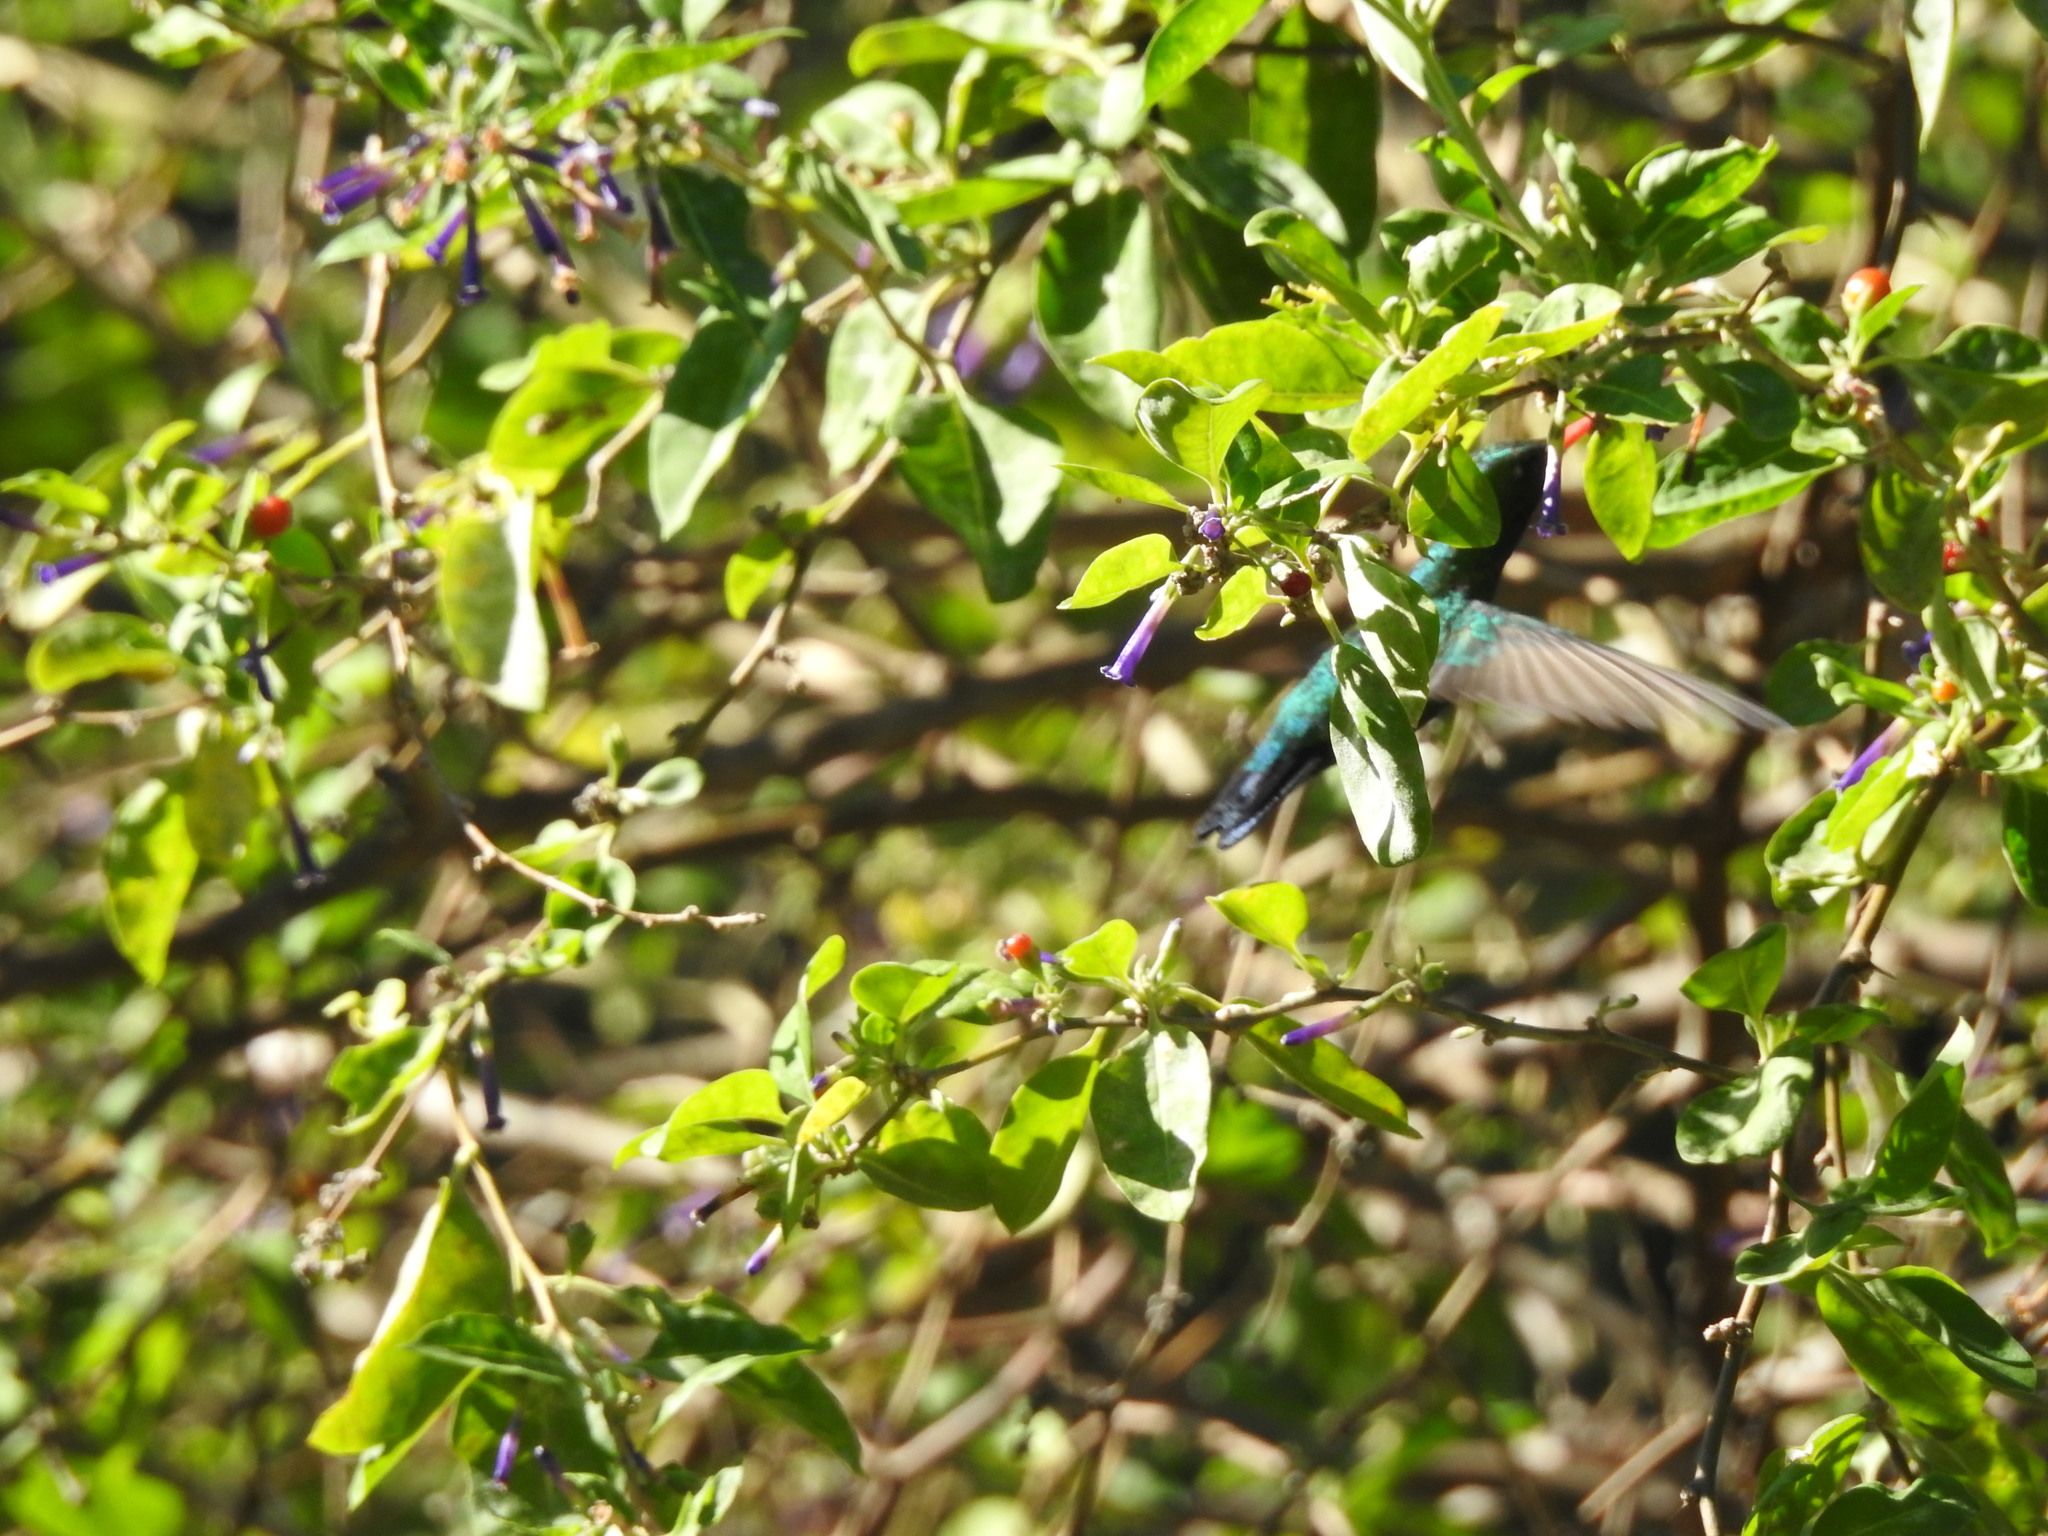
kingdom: Animalia
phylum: Chordata
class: Aves
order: Apodiformes
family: Trochilidae
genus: Chlorostilbon
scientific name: Chlorostilbon lucidus
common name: Glittering-bellied emerald
